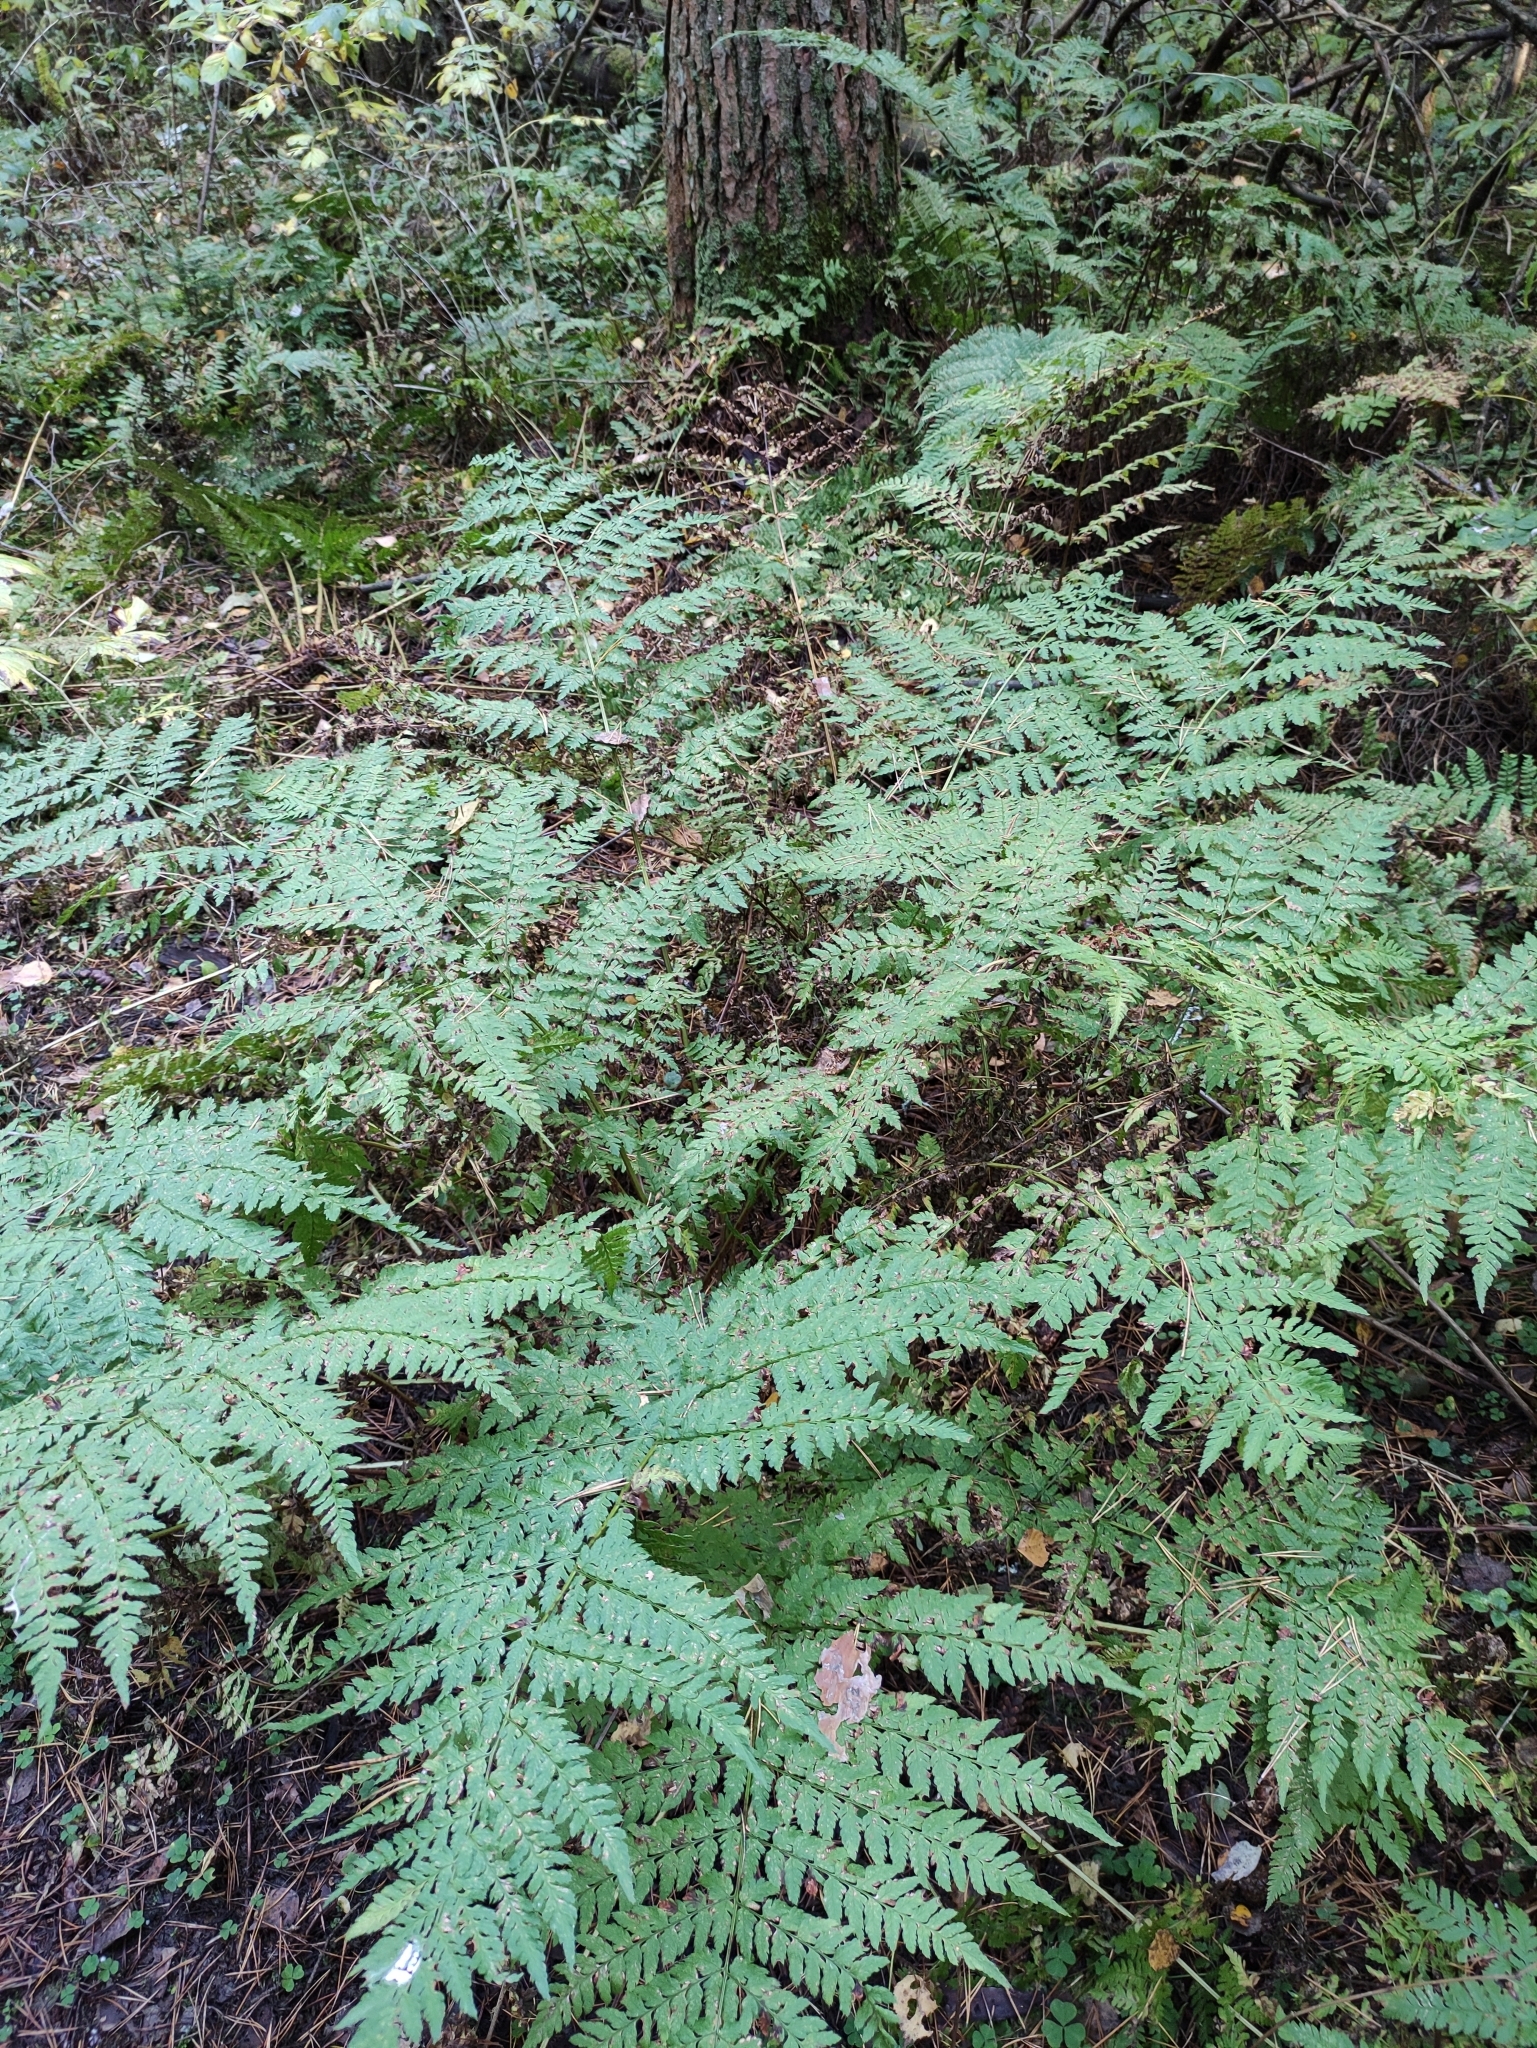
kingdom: Plantae
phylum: Tracheophyta
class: Polypodiopsida
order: Polypodiales
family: Dryopteridaceae
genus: Dryopteris
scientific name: Dryopteris expansa
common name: Northern buckler fern
